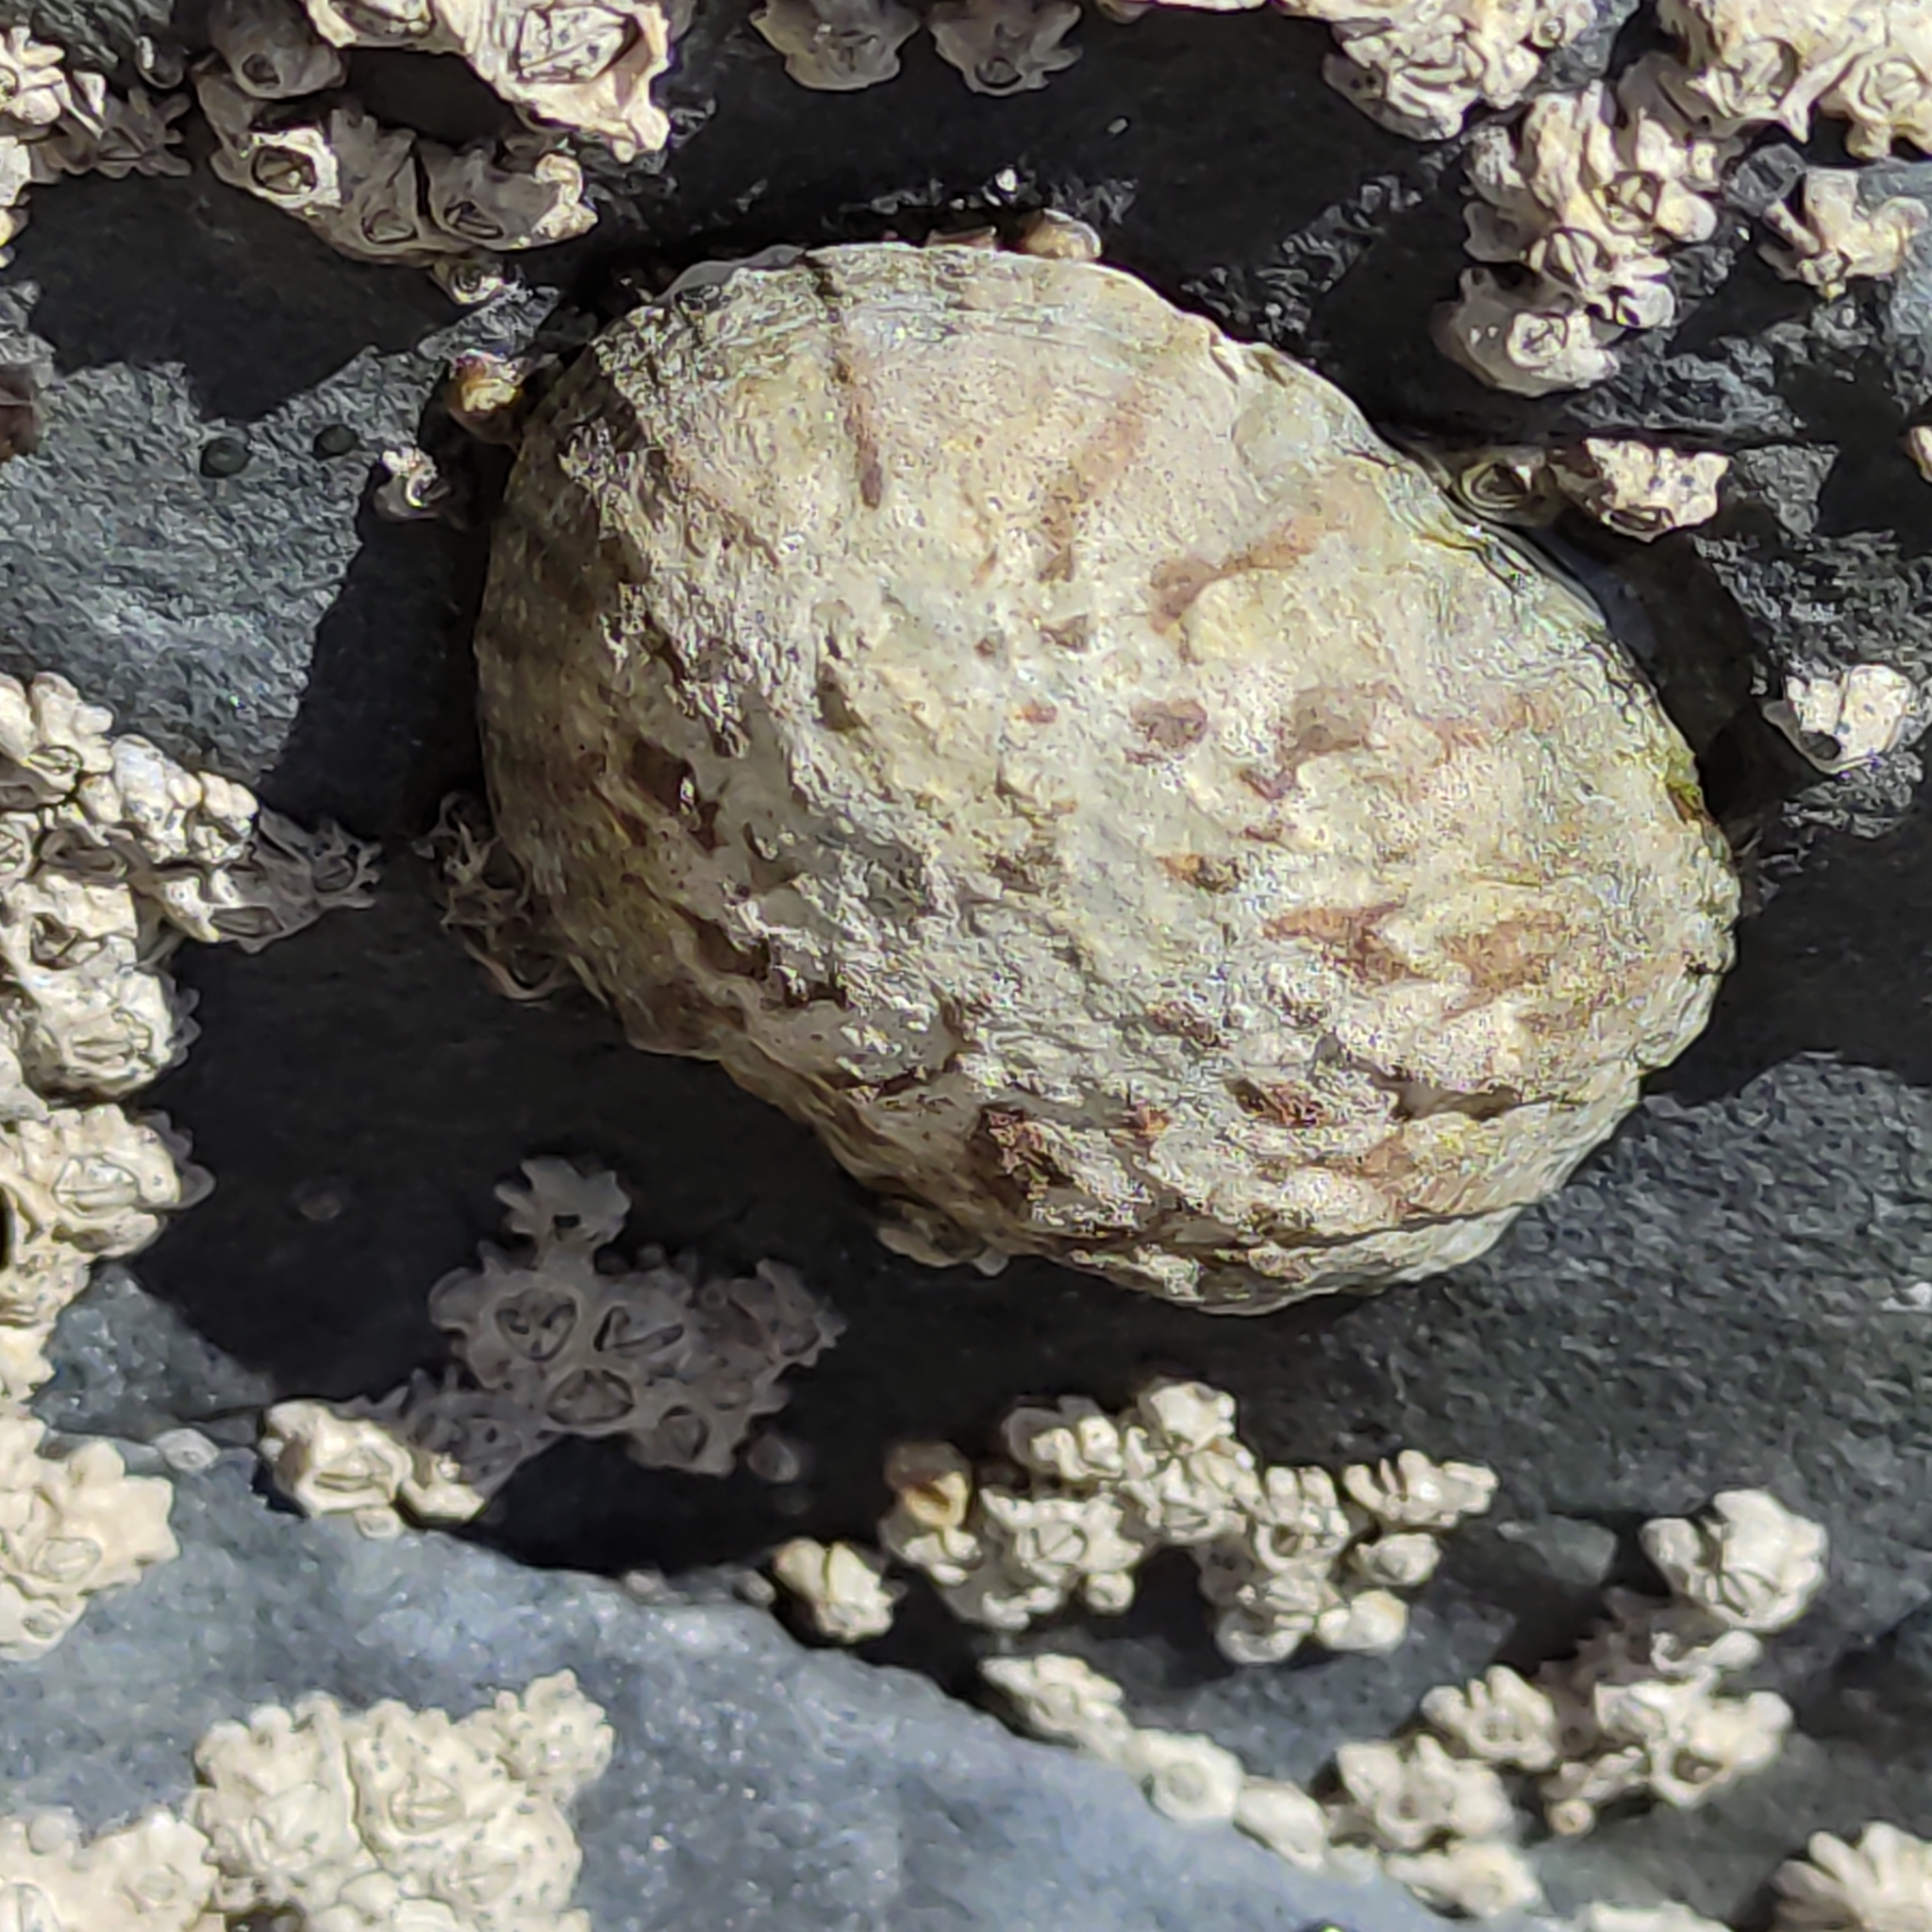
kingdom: Animalia
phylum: Mollusca
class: Gastropoda
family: Nacellidae
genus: Cellana
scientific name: Cellana radians
